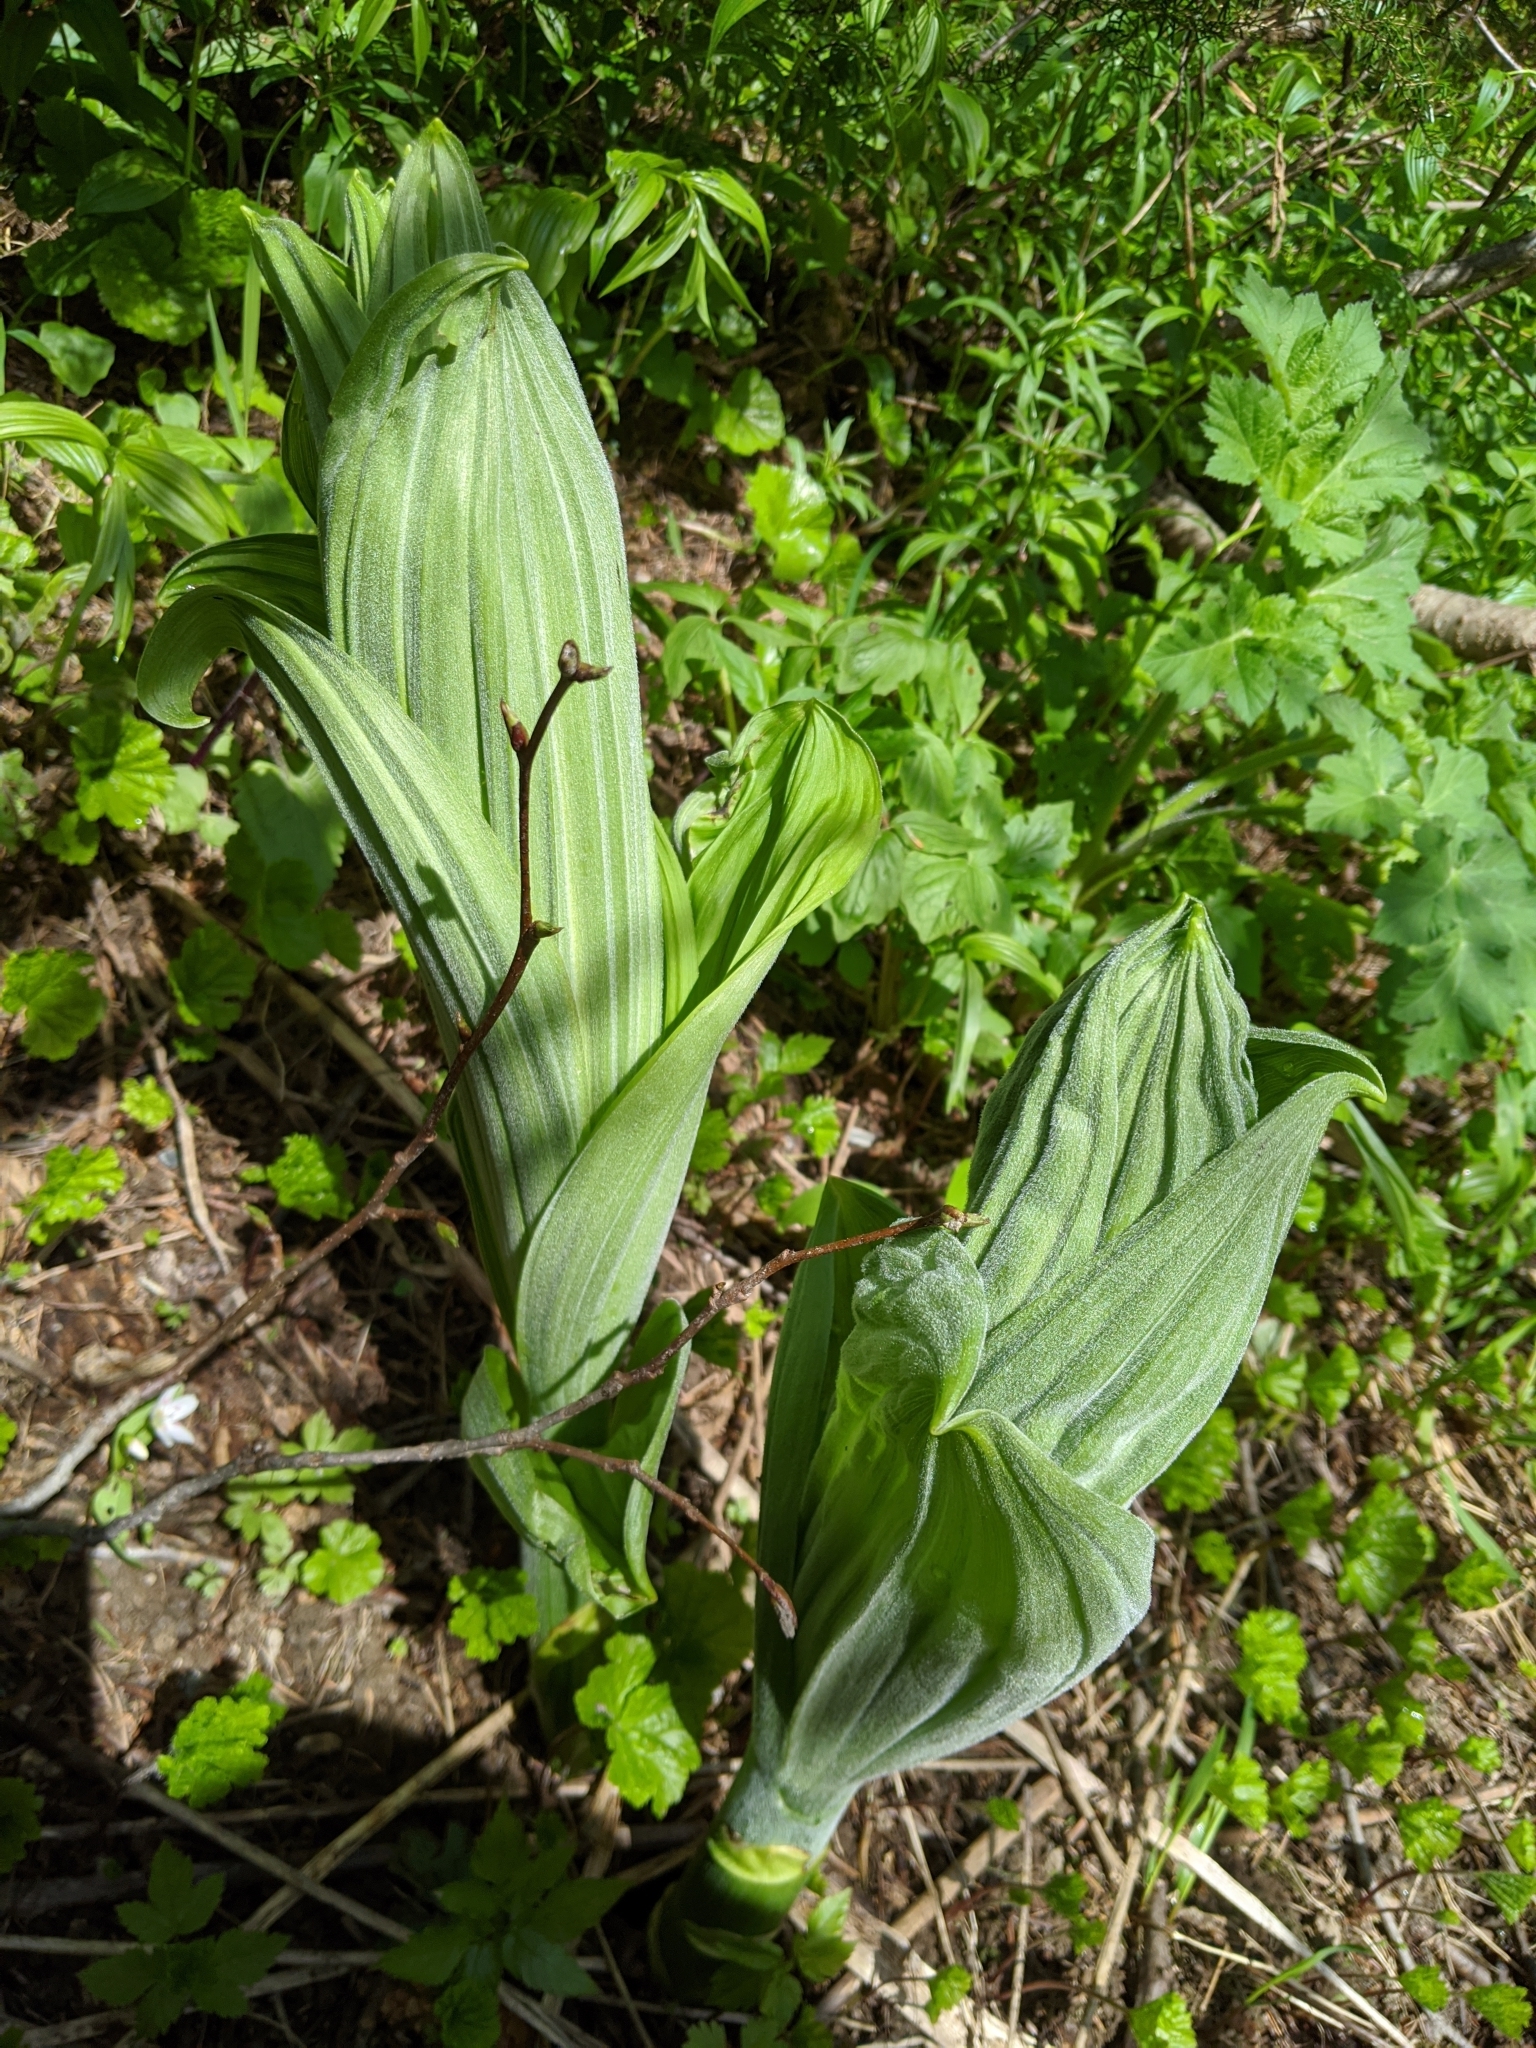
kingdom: Plantae
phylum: Tracheophyta
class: Liliopsida
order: Liliales
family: Melanthiaceae
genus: Veratrum
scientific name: Veratrum viride
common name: American false hellebore
